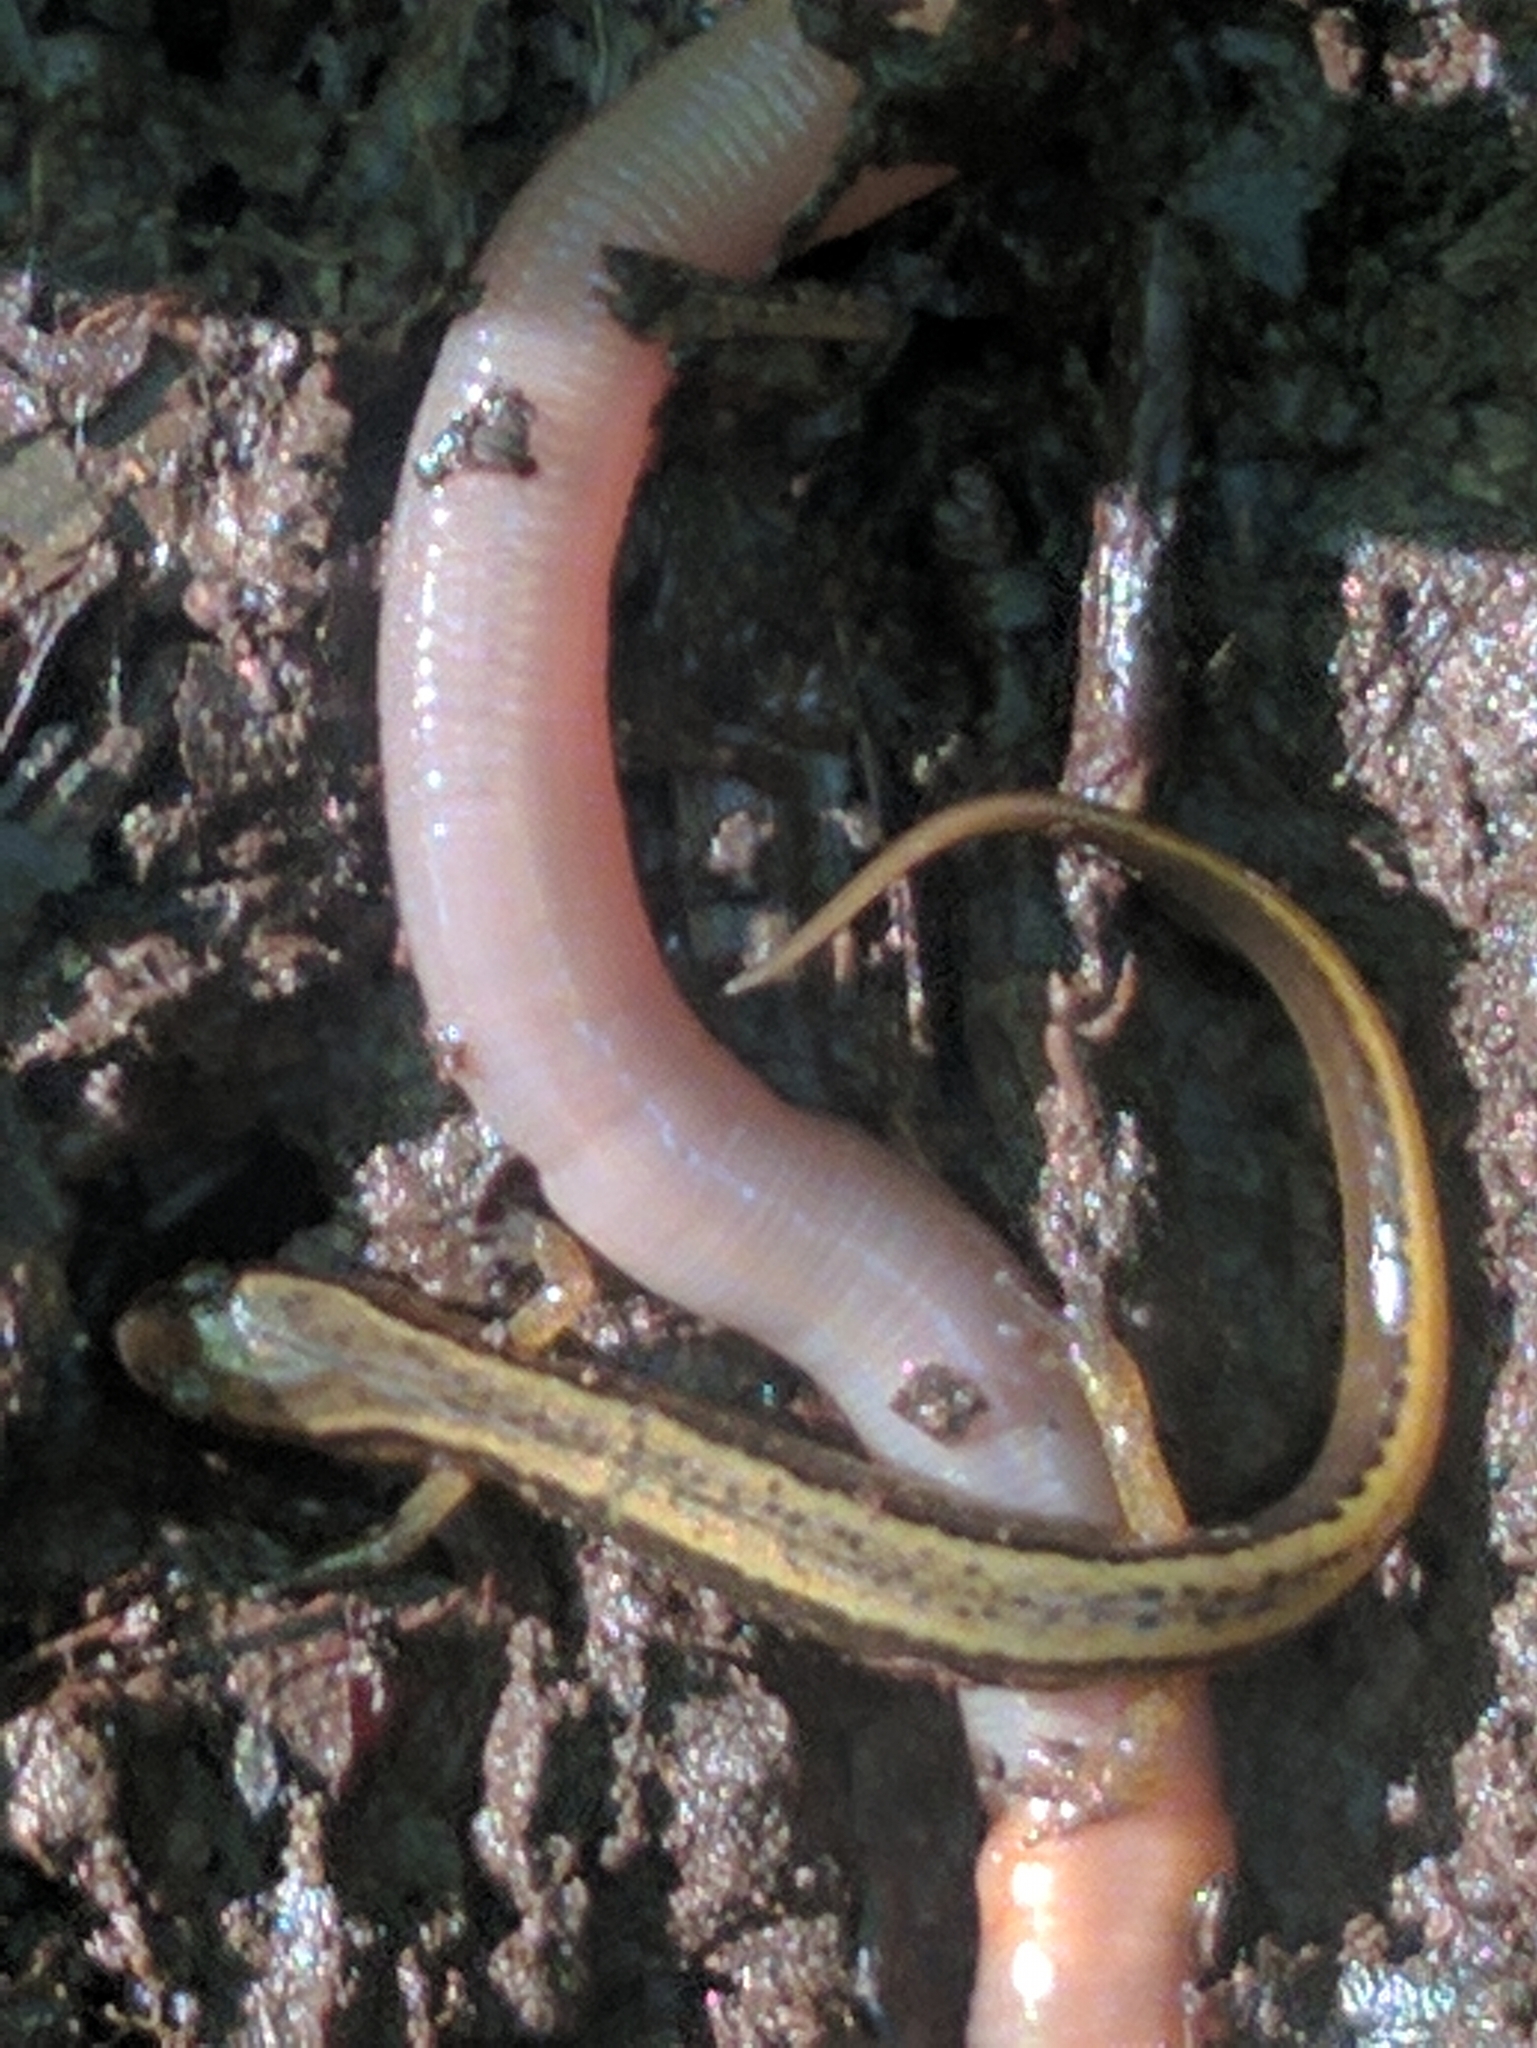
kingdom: Animalia
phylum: Chordata
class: Amphibia
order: Caudata
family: Plethodontidae
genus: Eurycea
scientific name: Eurycea bislineata
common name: Northern two-lined salamander
